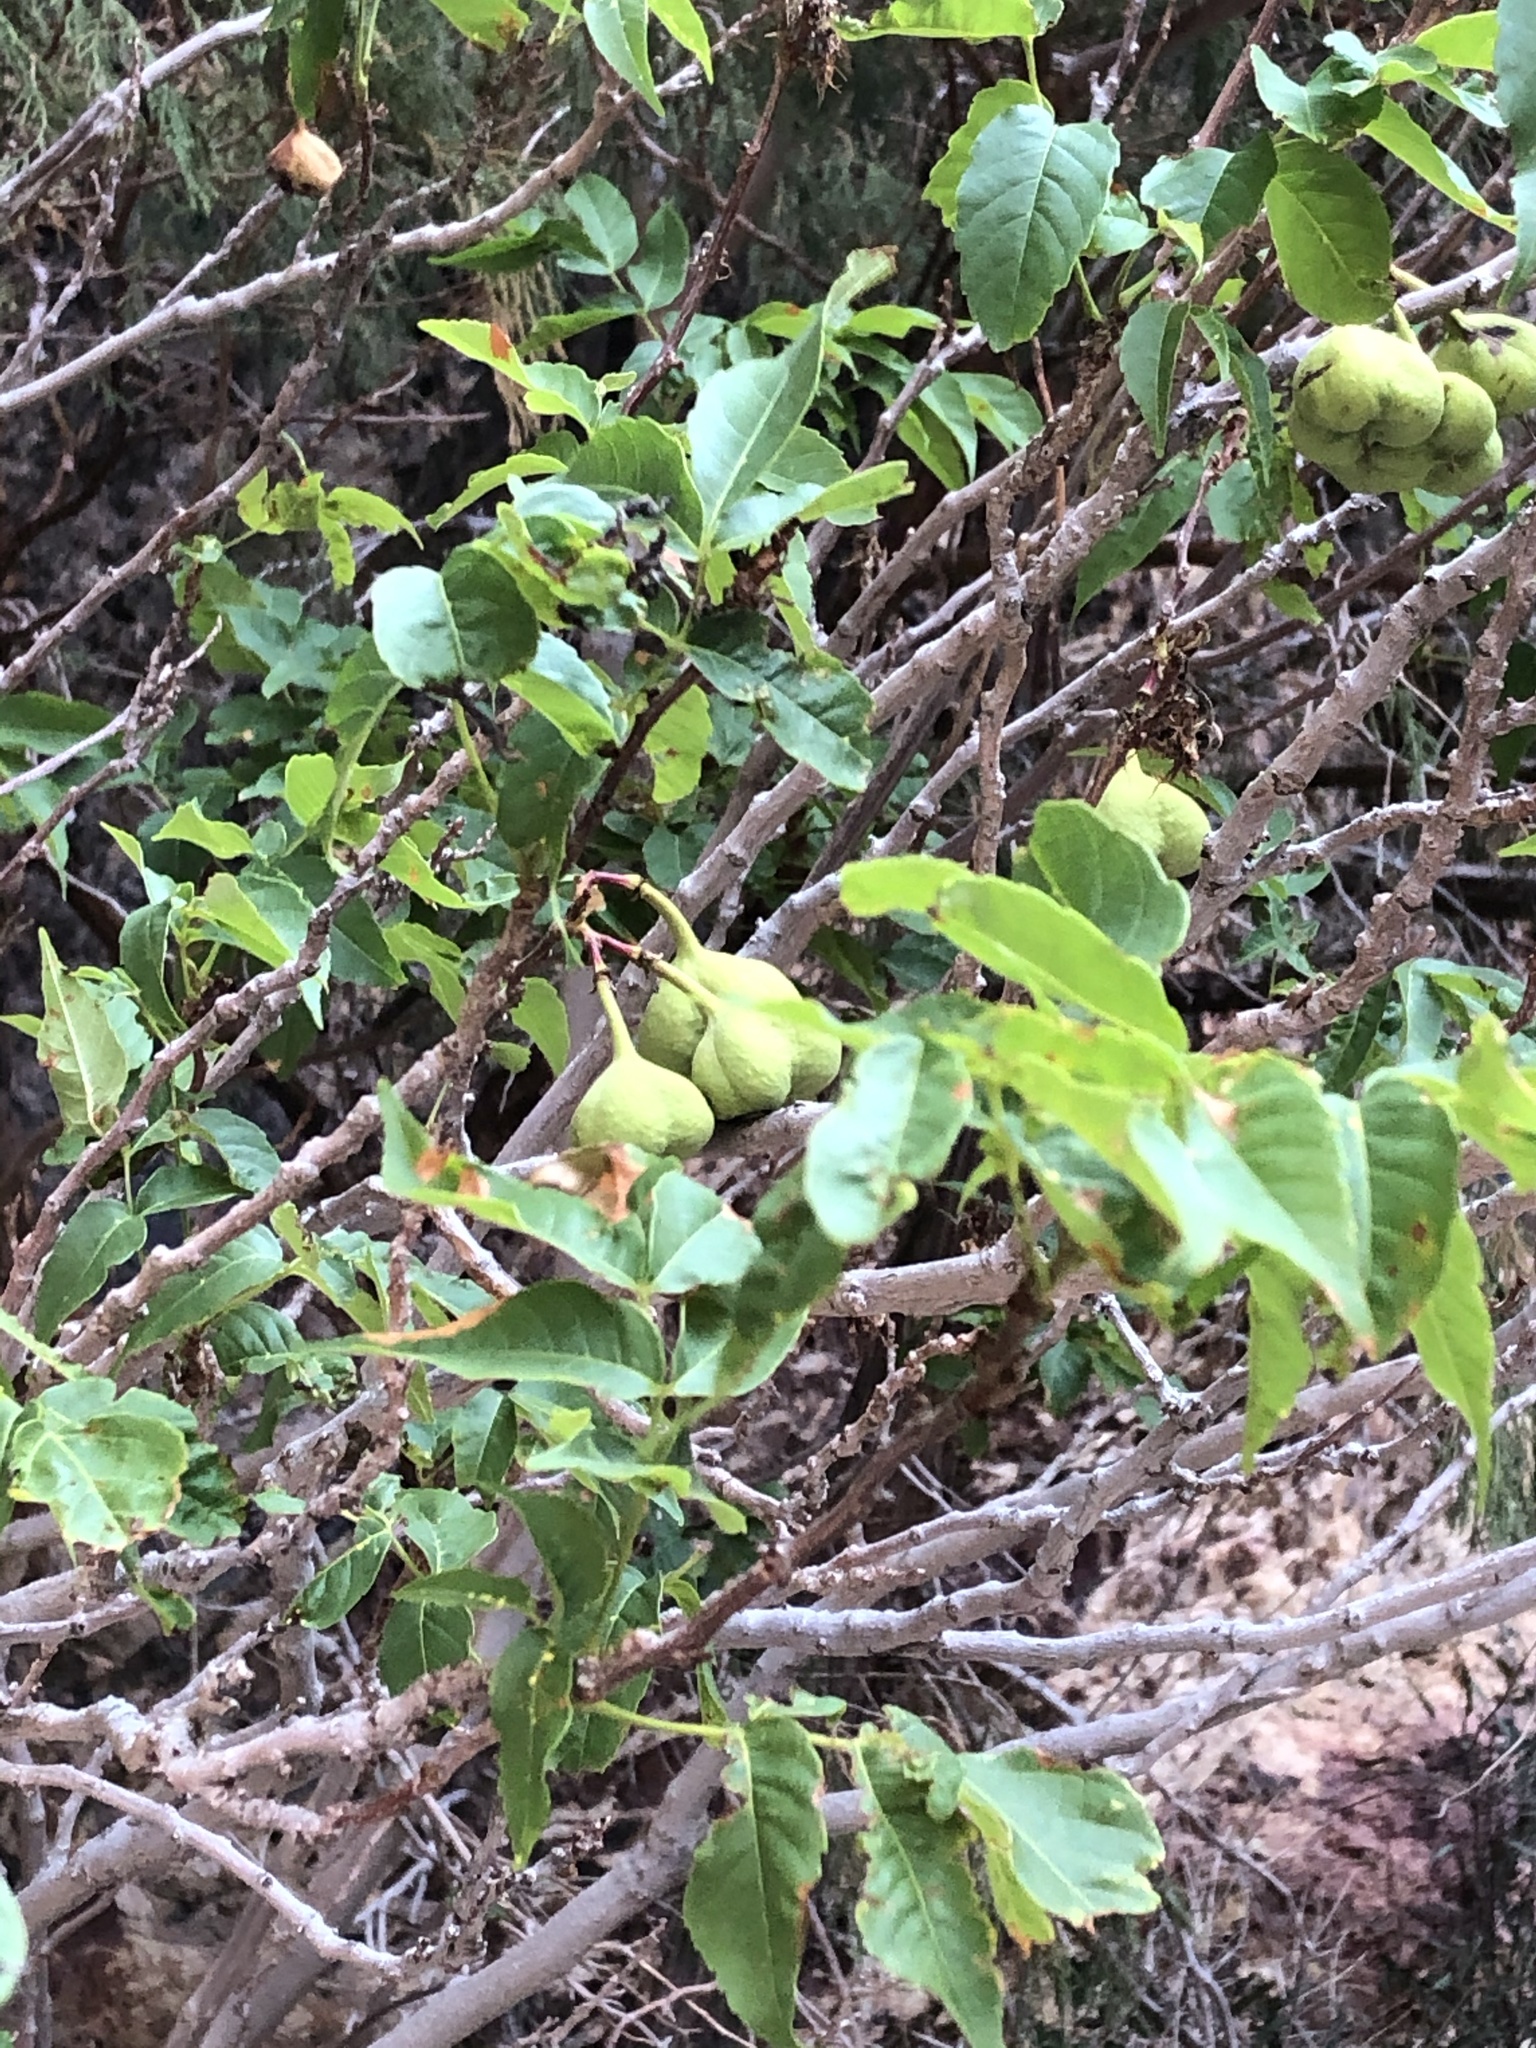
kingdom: Plantae
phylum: Tracheophyta
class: Magnoliopsida
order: Sapindales
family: Sapindaceae
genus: Ungnadia
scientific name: Ungnadia speciosa
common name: Texas-buckeye
